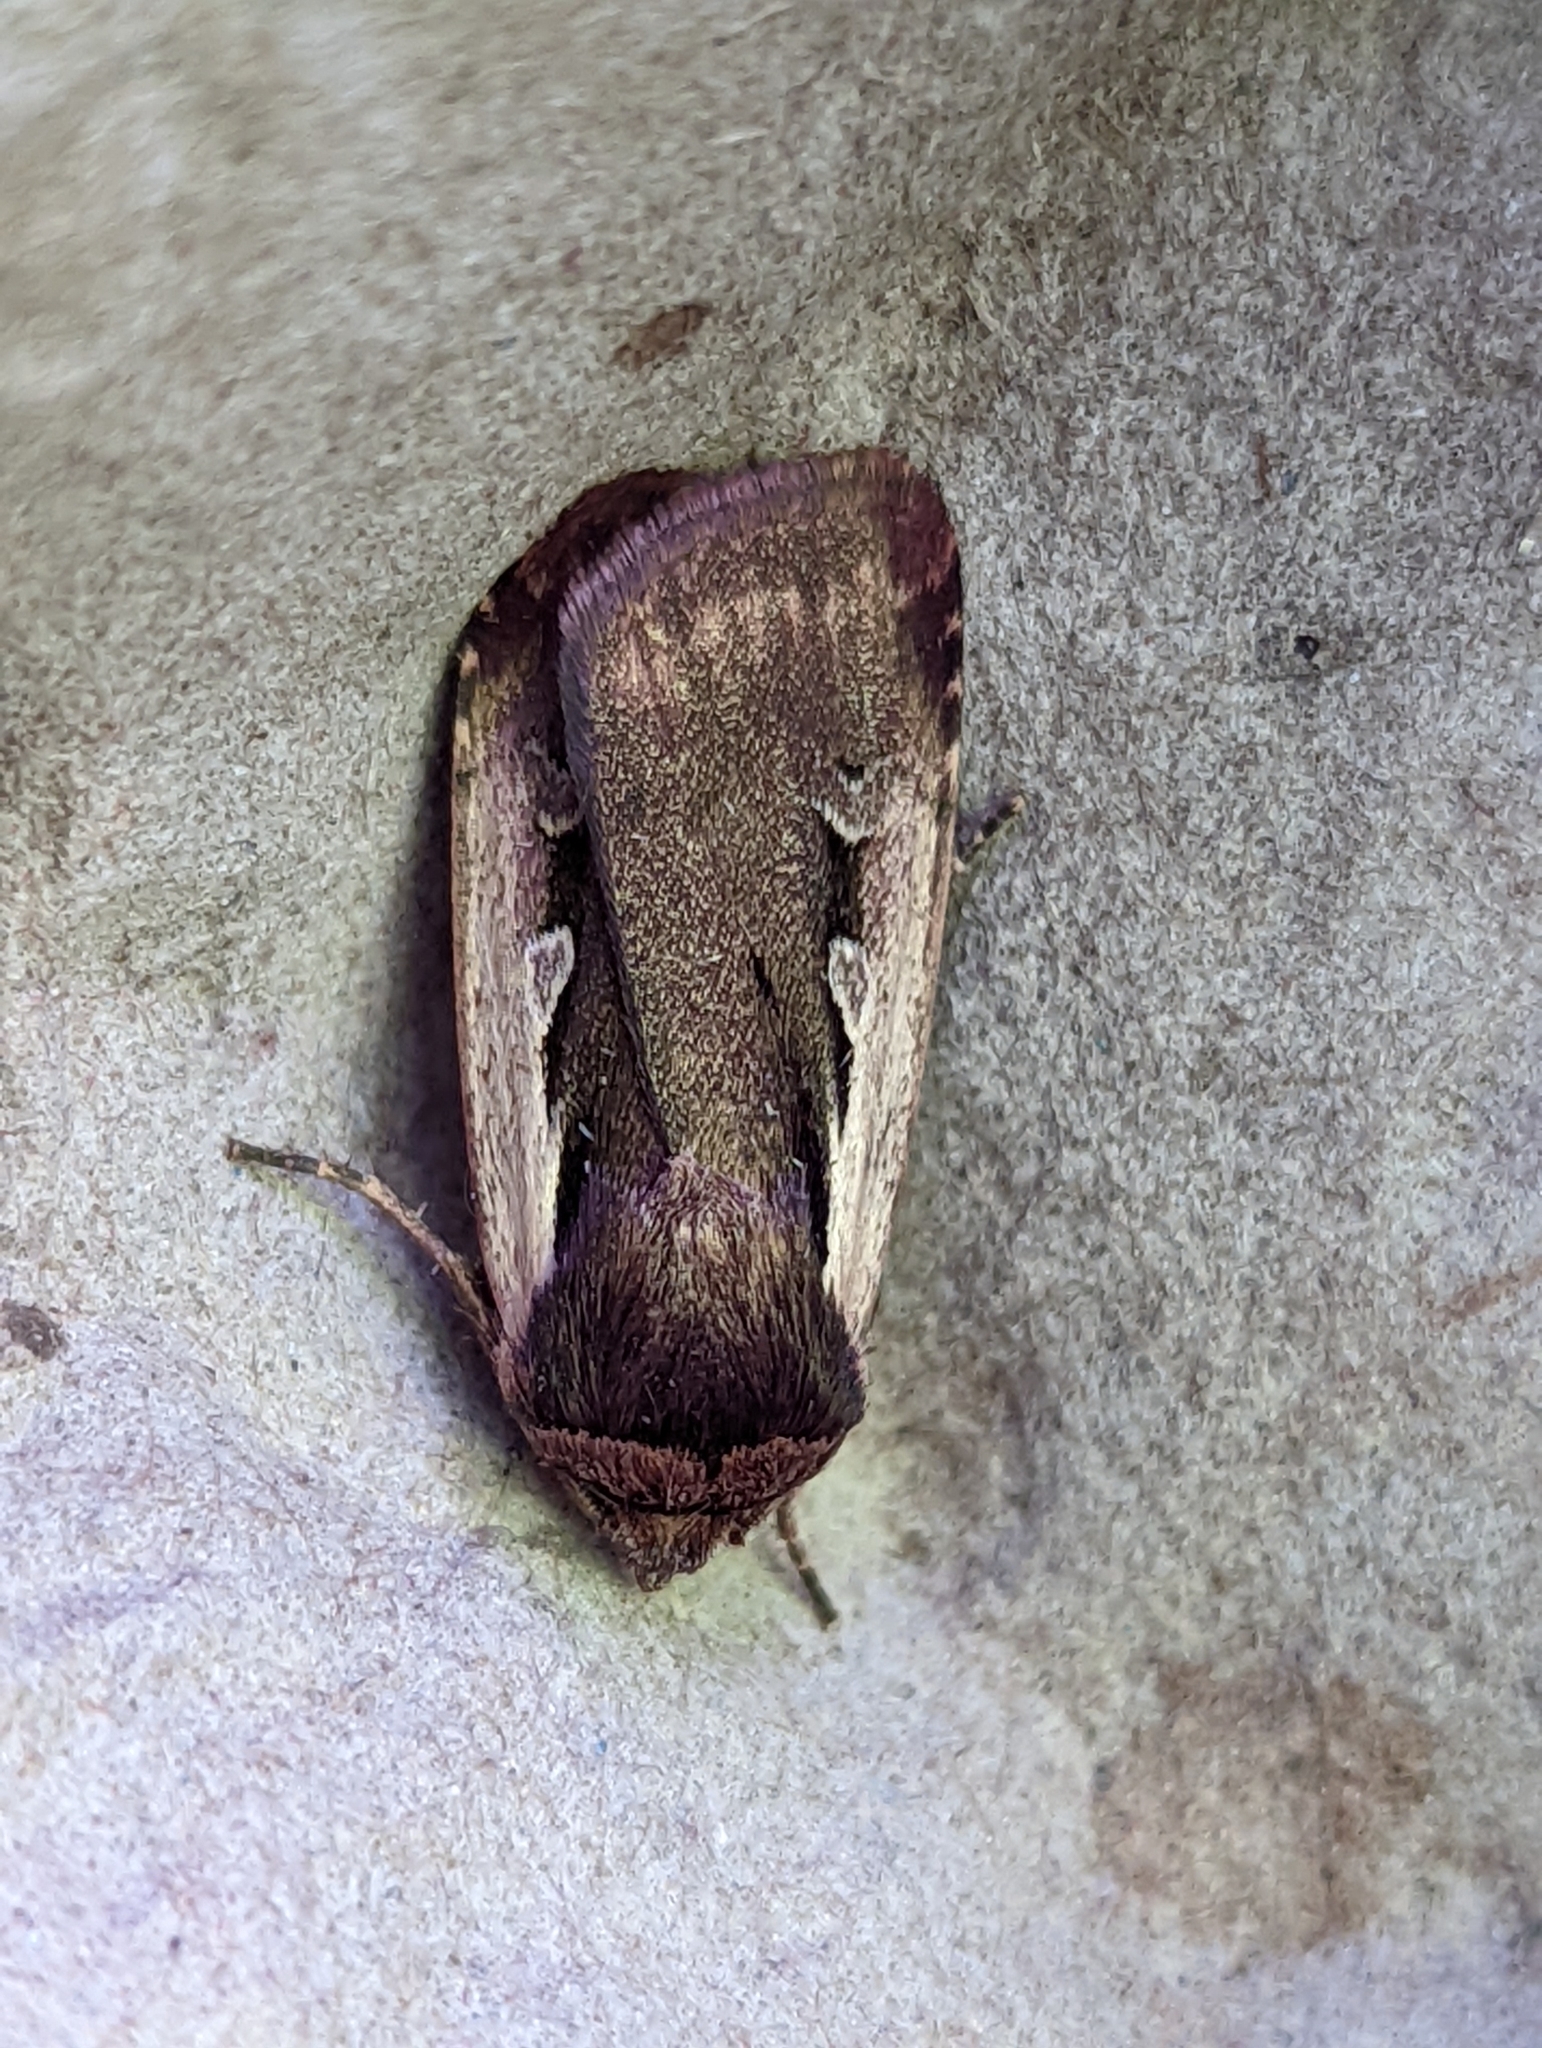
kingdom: Animalia
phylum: Arthropoda
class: Insecta
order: Lepidoptera
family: Noctuidae
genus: Ochropleura
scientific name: Ochropleura plecta
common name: Flame shoulder
